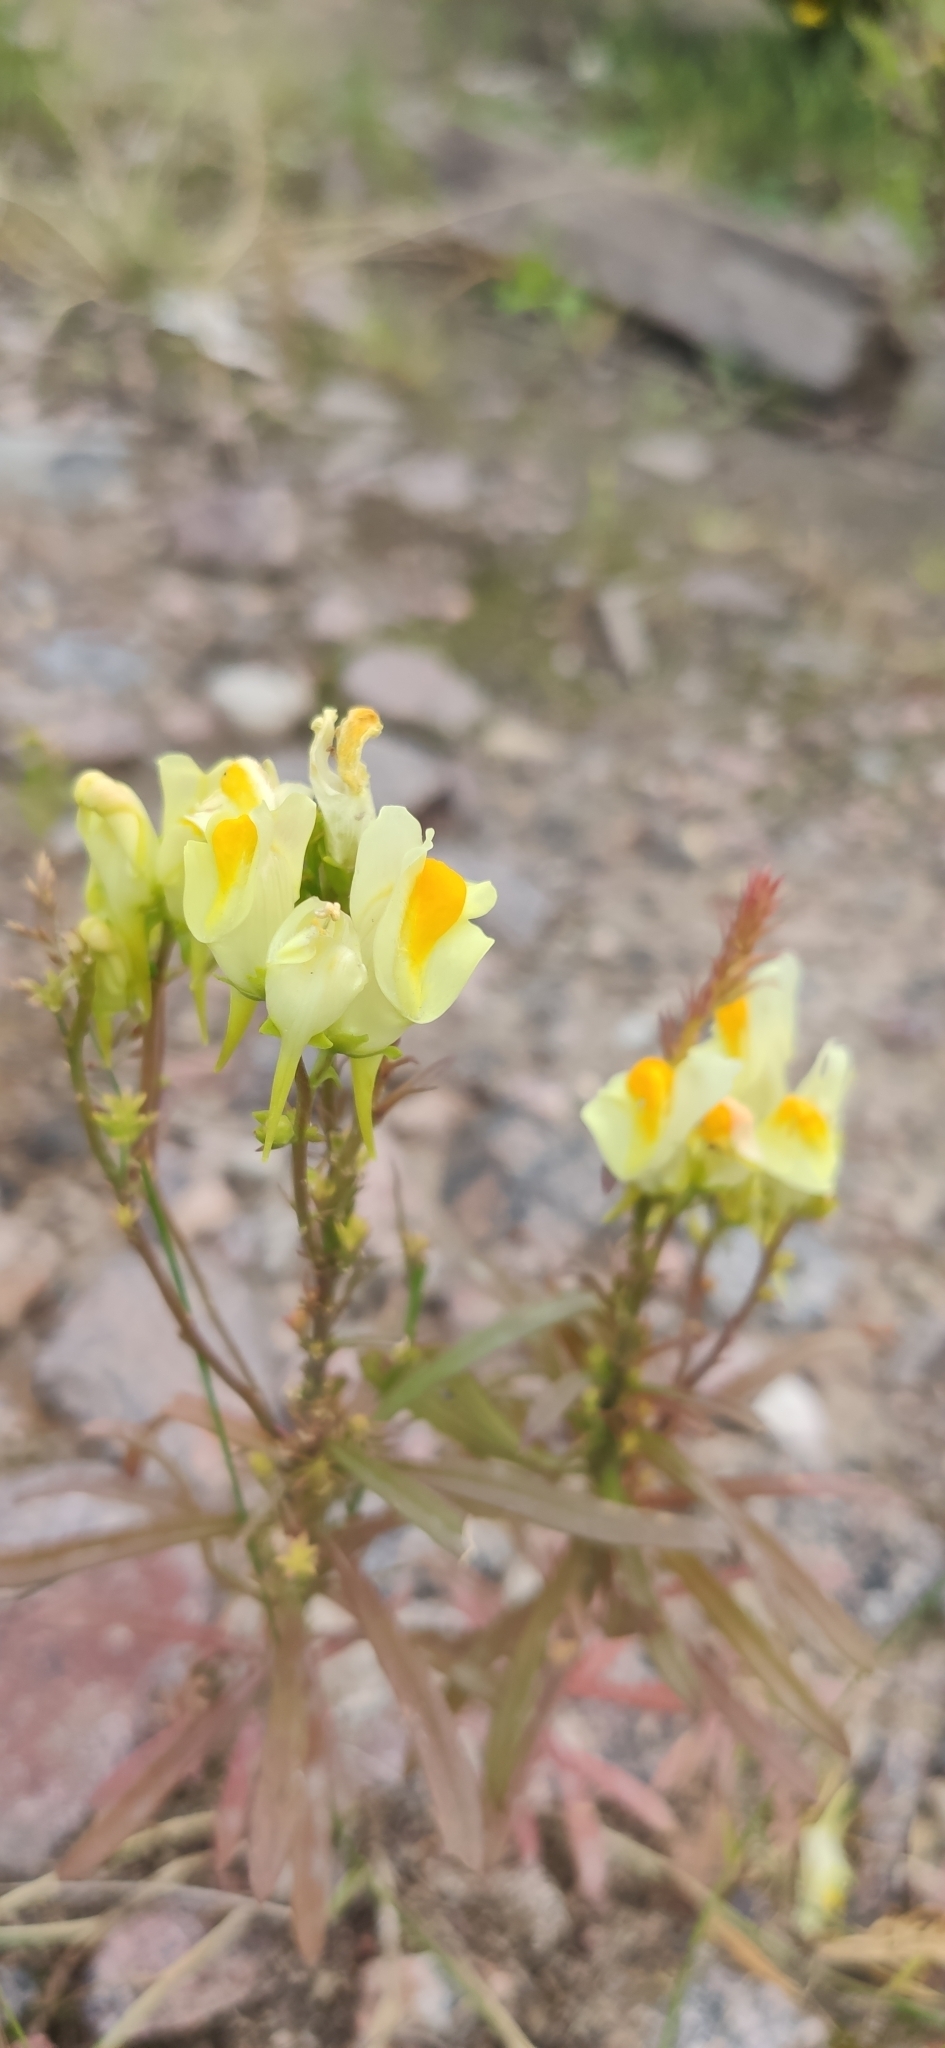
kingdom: Plantae
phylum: Tracheophyta
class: Magnoliopsida
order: Lamiales
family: Plantaginaceae
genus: Linaria
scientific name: Linaria vulgaris
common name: Butter and eggs
